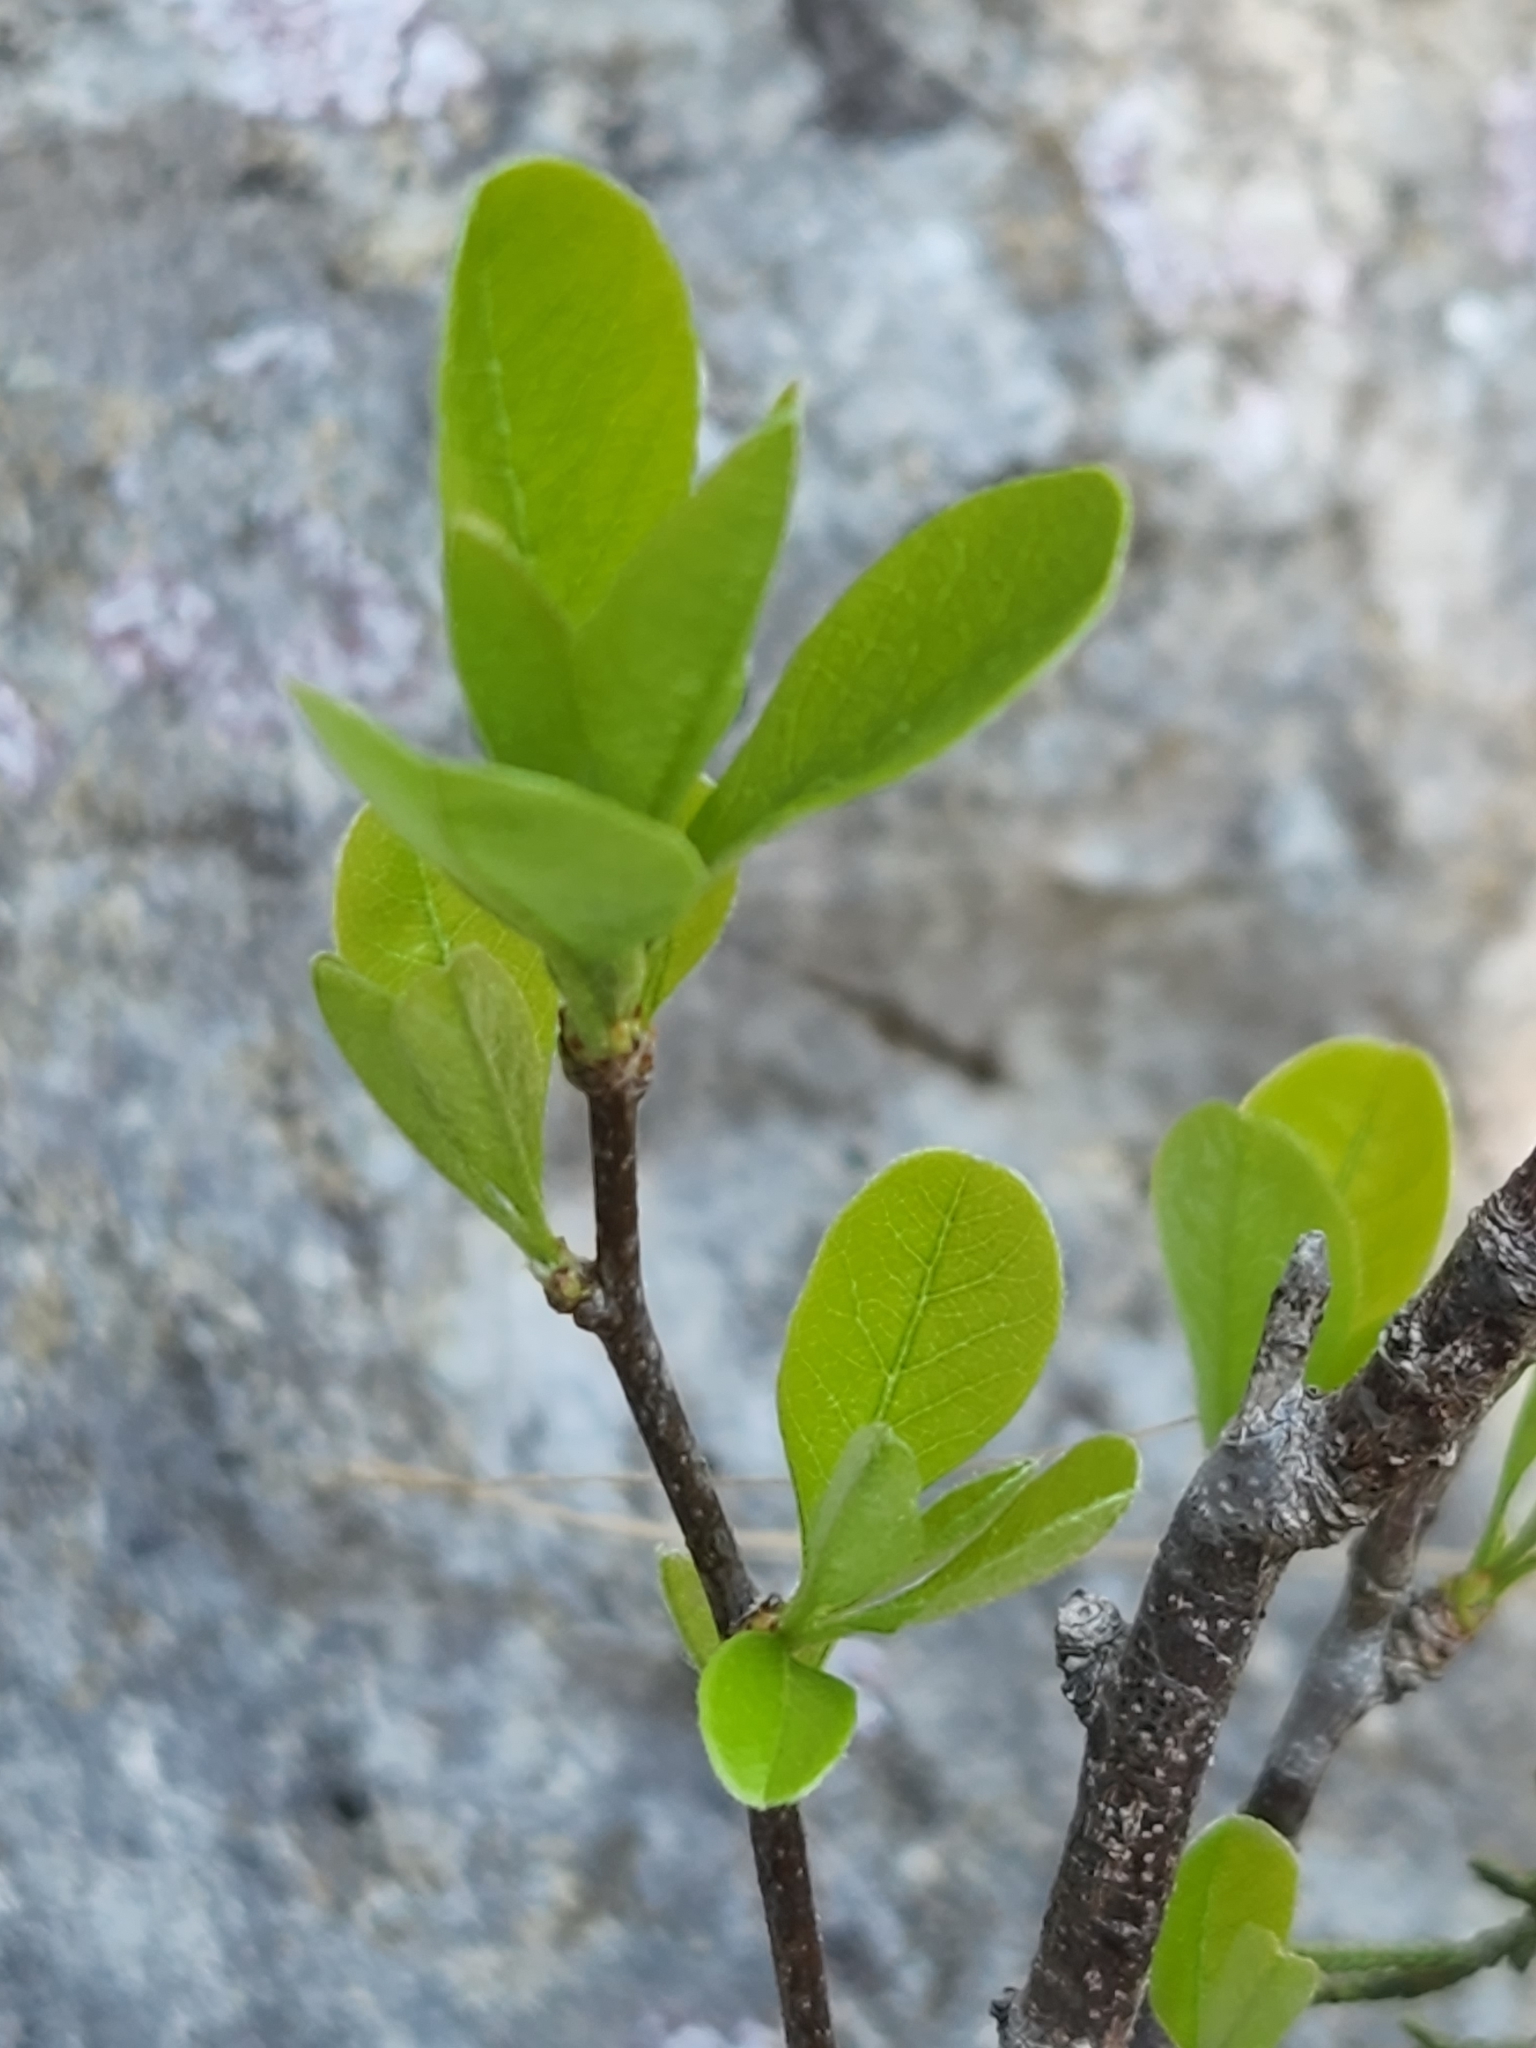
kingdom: Plantae
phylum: Tracheophyta
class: Magnoliopsida
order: Ericales
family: Sapotaceae
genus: Sideroxylon
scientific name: Sideroxylon lanuginosum
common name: Chittamwood
